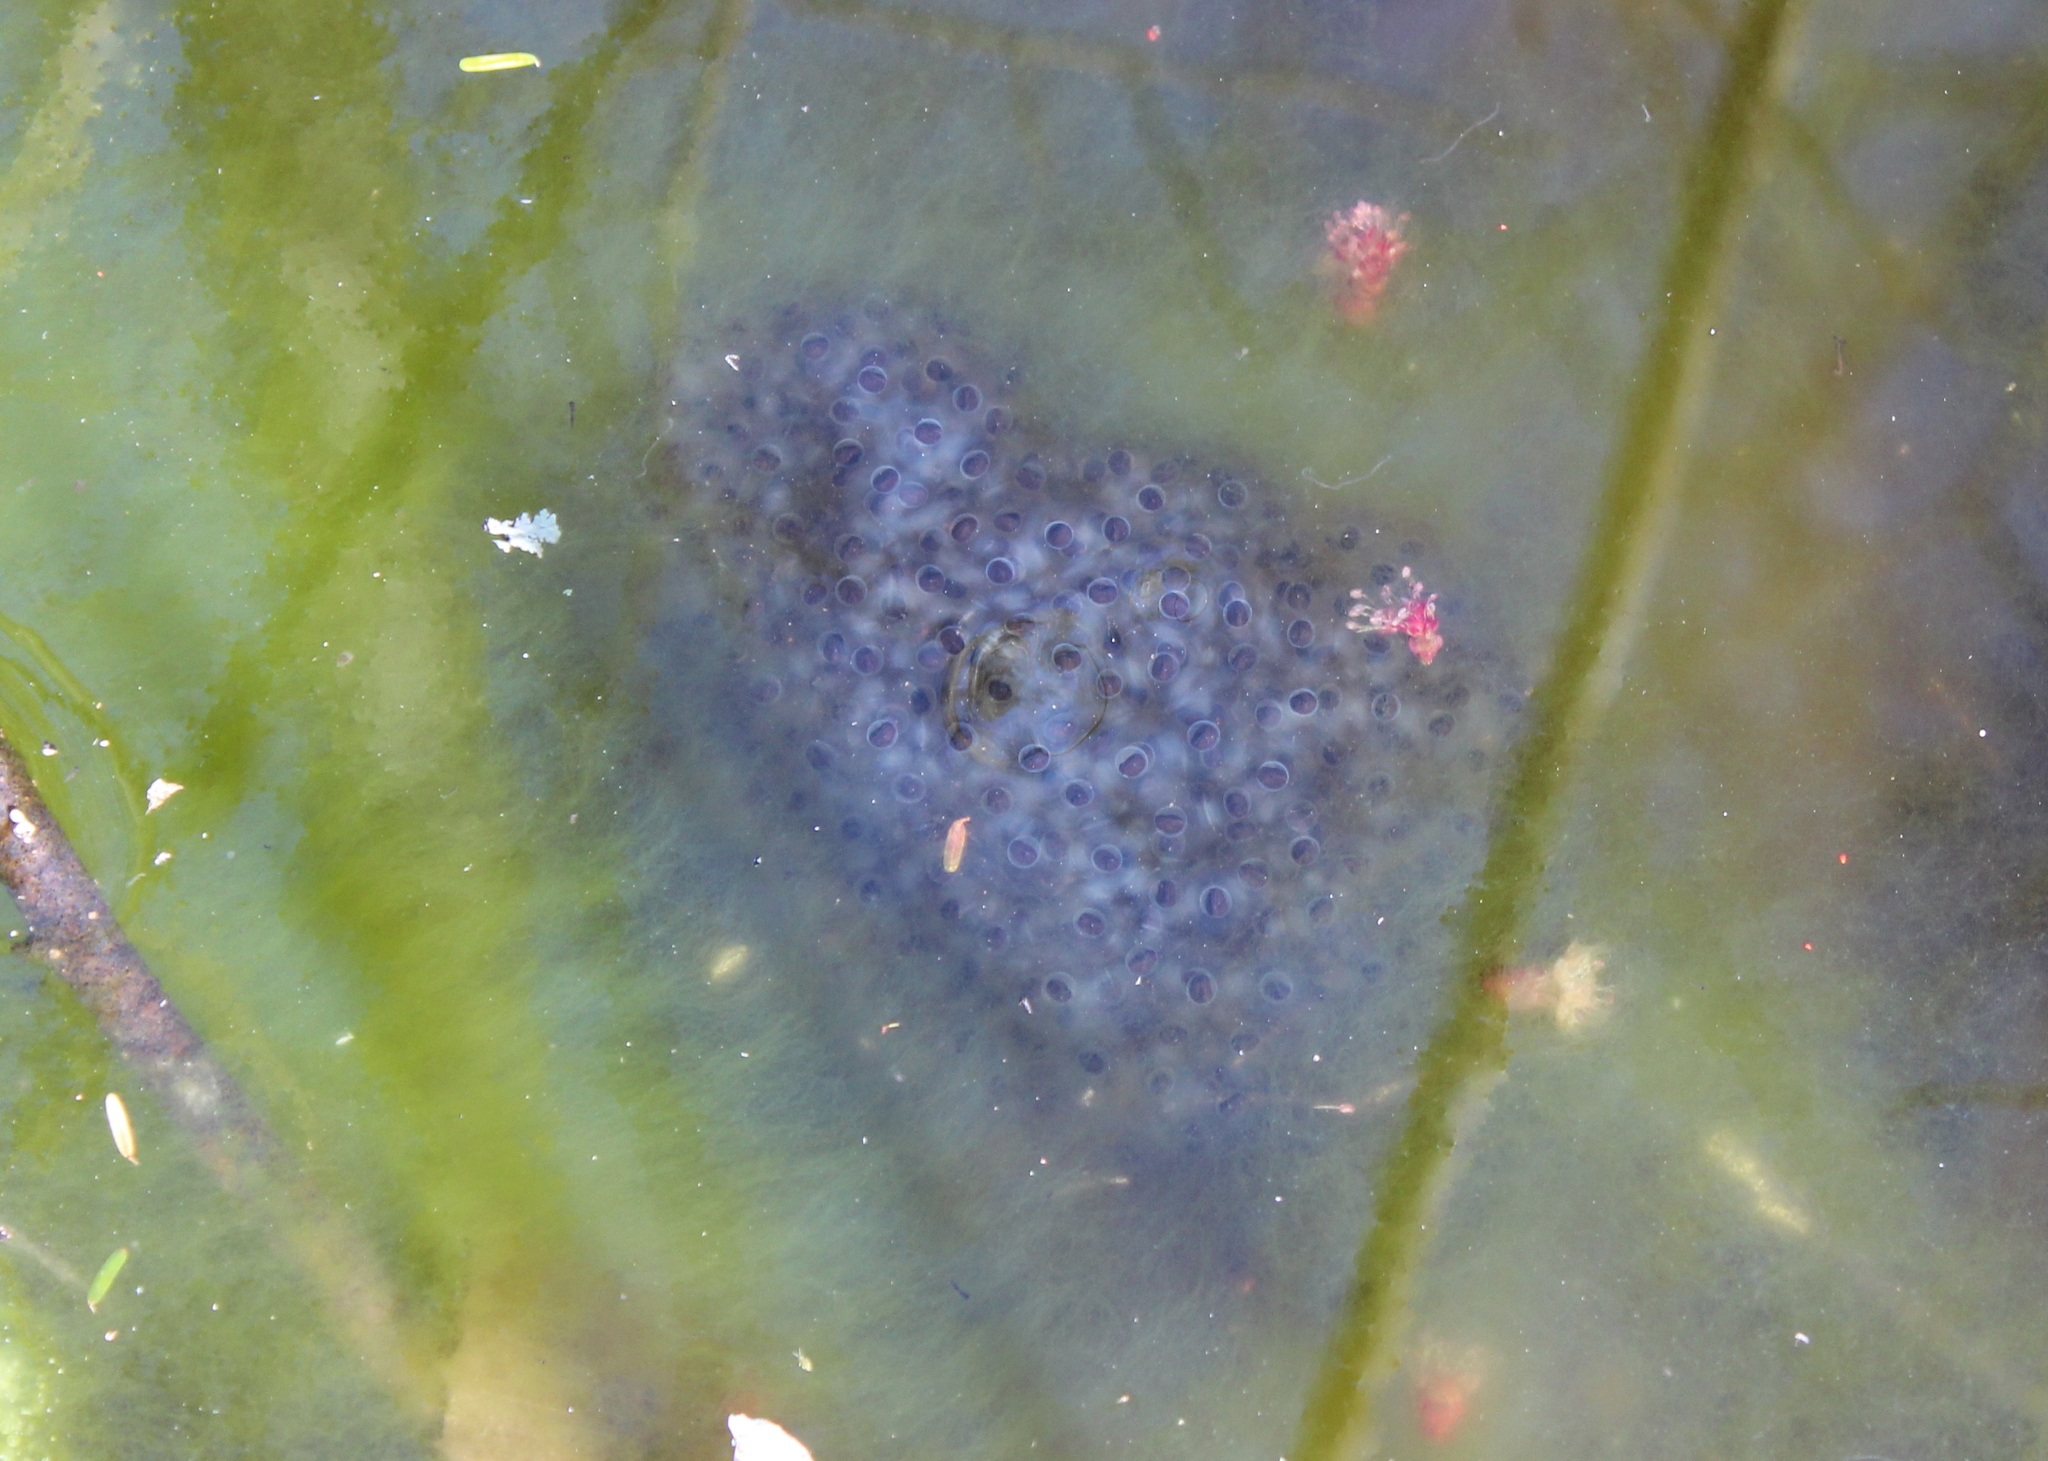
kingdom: Animalia
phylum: Chordata
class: Amphibia
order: Anura
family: Ranidae
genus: Lithobates
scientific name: Lithobates sylvaticus
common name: Wood frog
